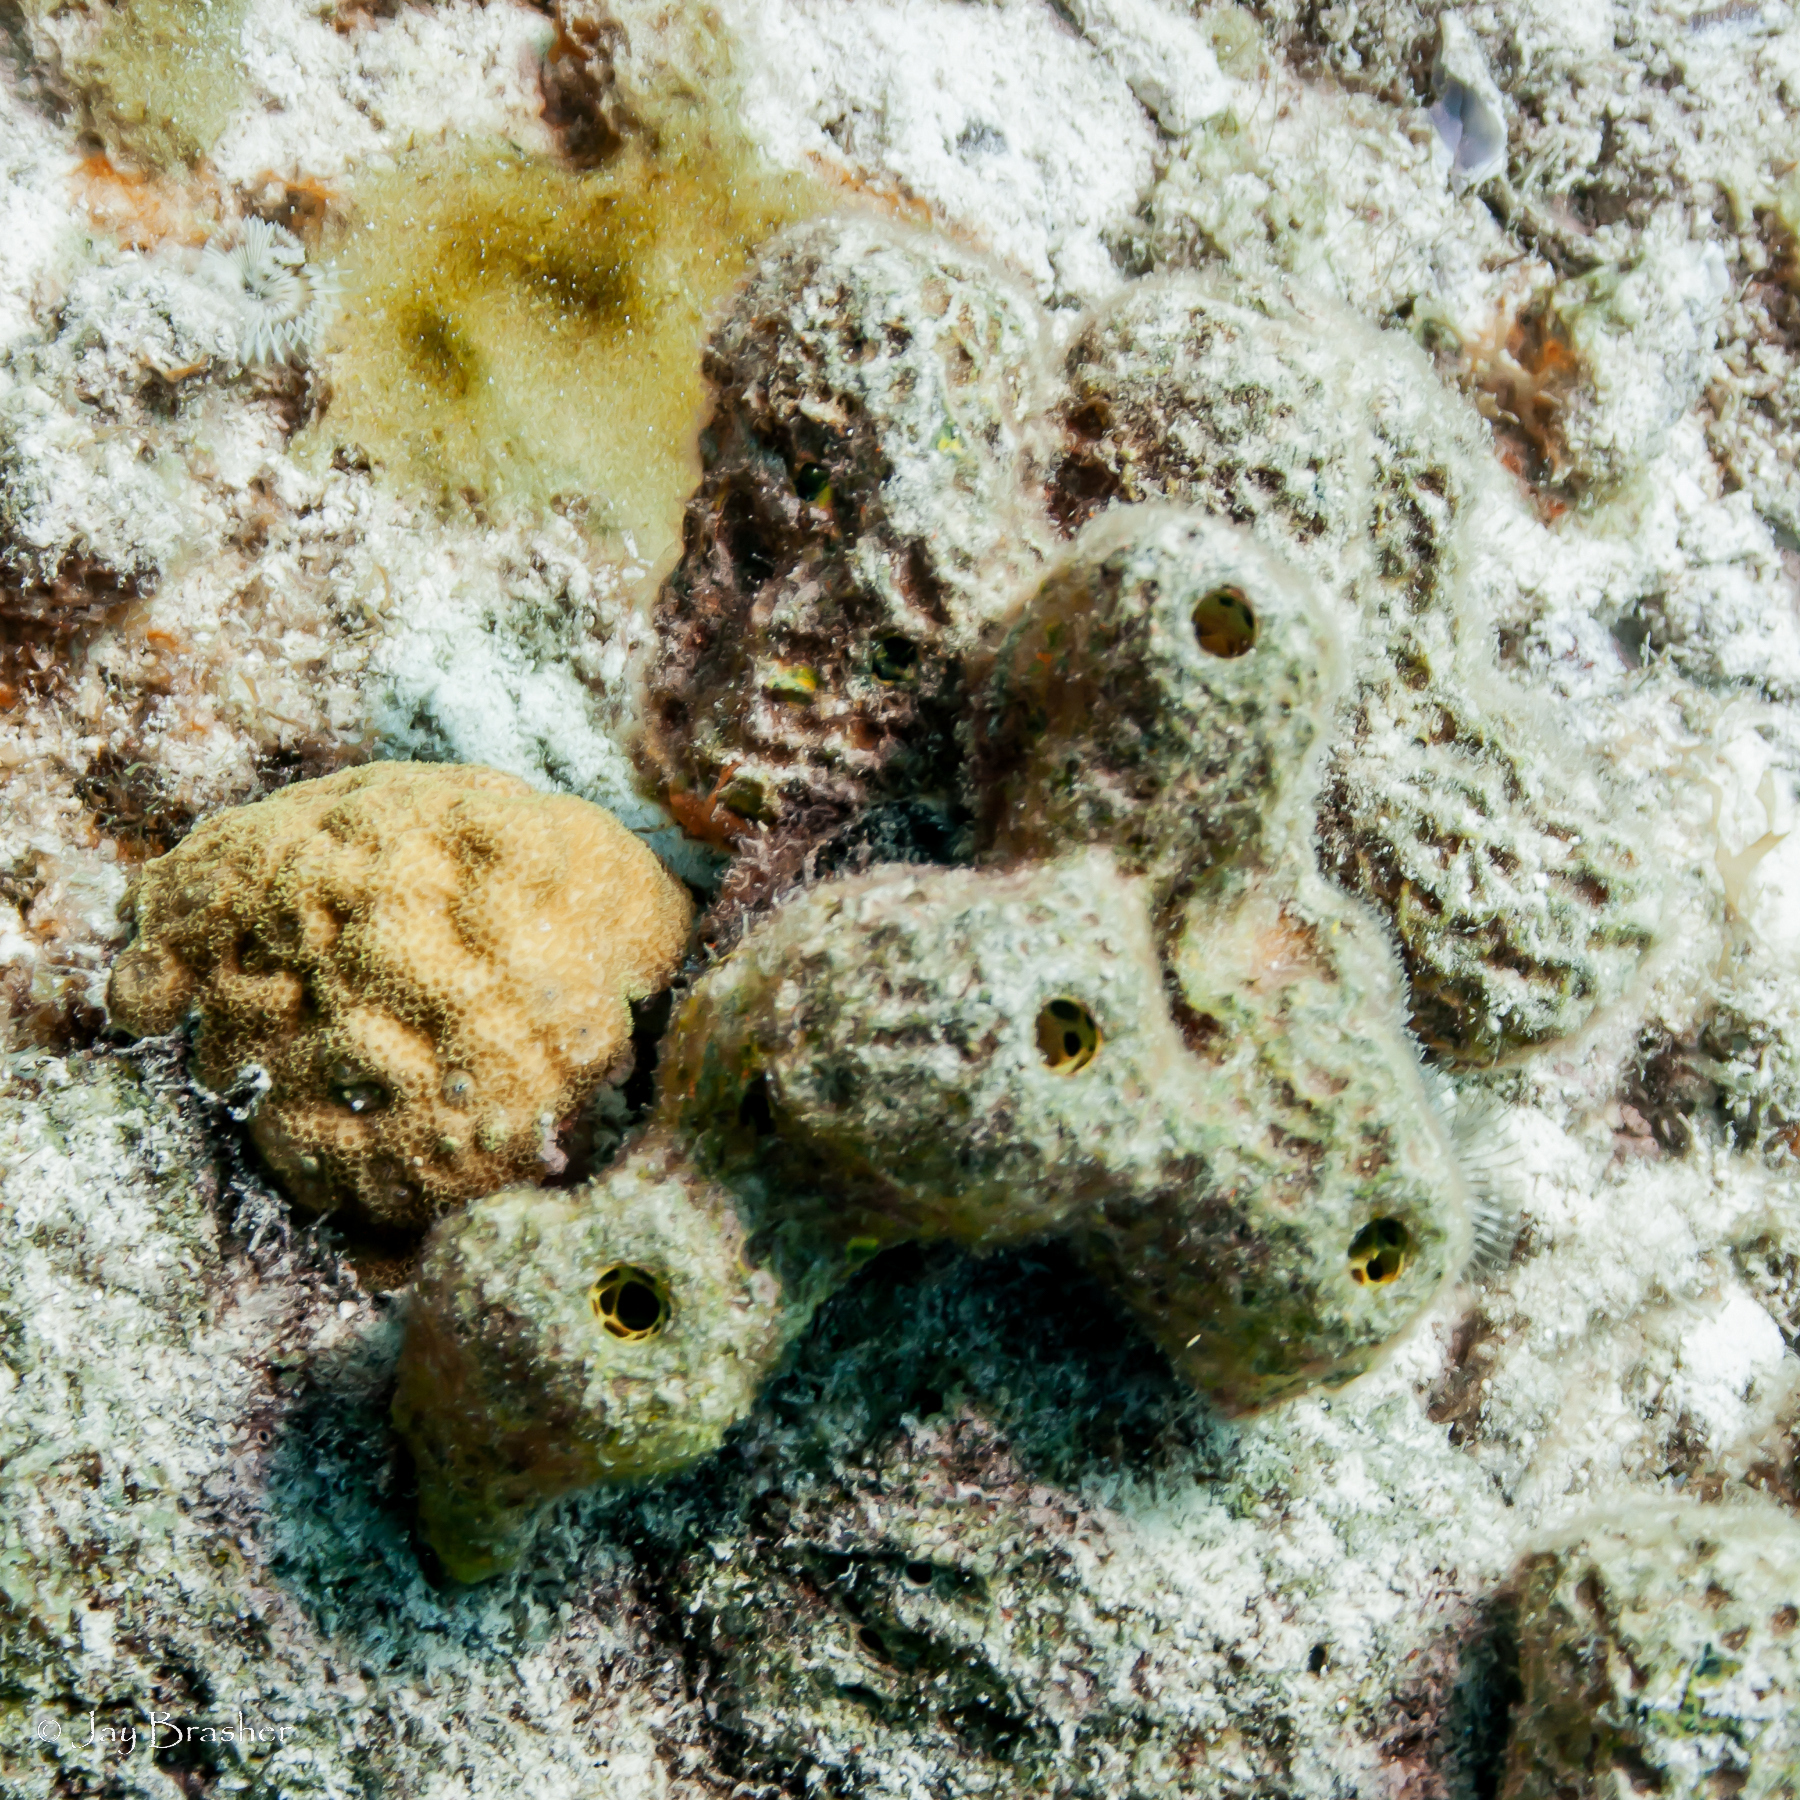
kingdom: Animalia
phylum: Porifera
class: Demospongiae
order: Verongiida
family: Aplysinidae
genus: Verongula
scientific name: Verongula rigida
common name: Pitted sponge
